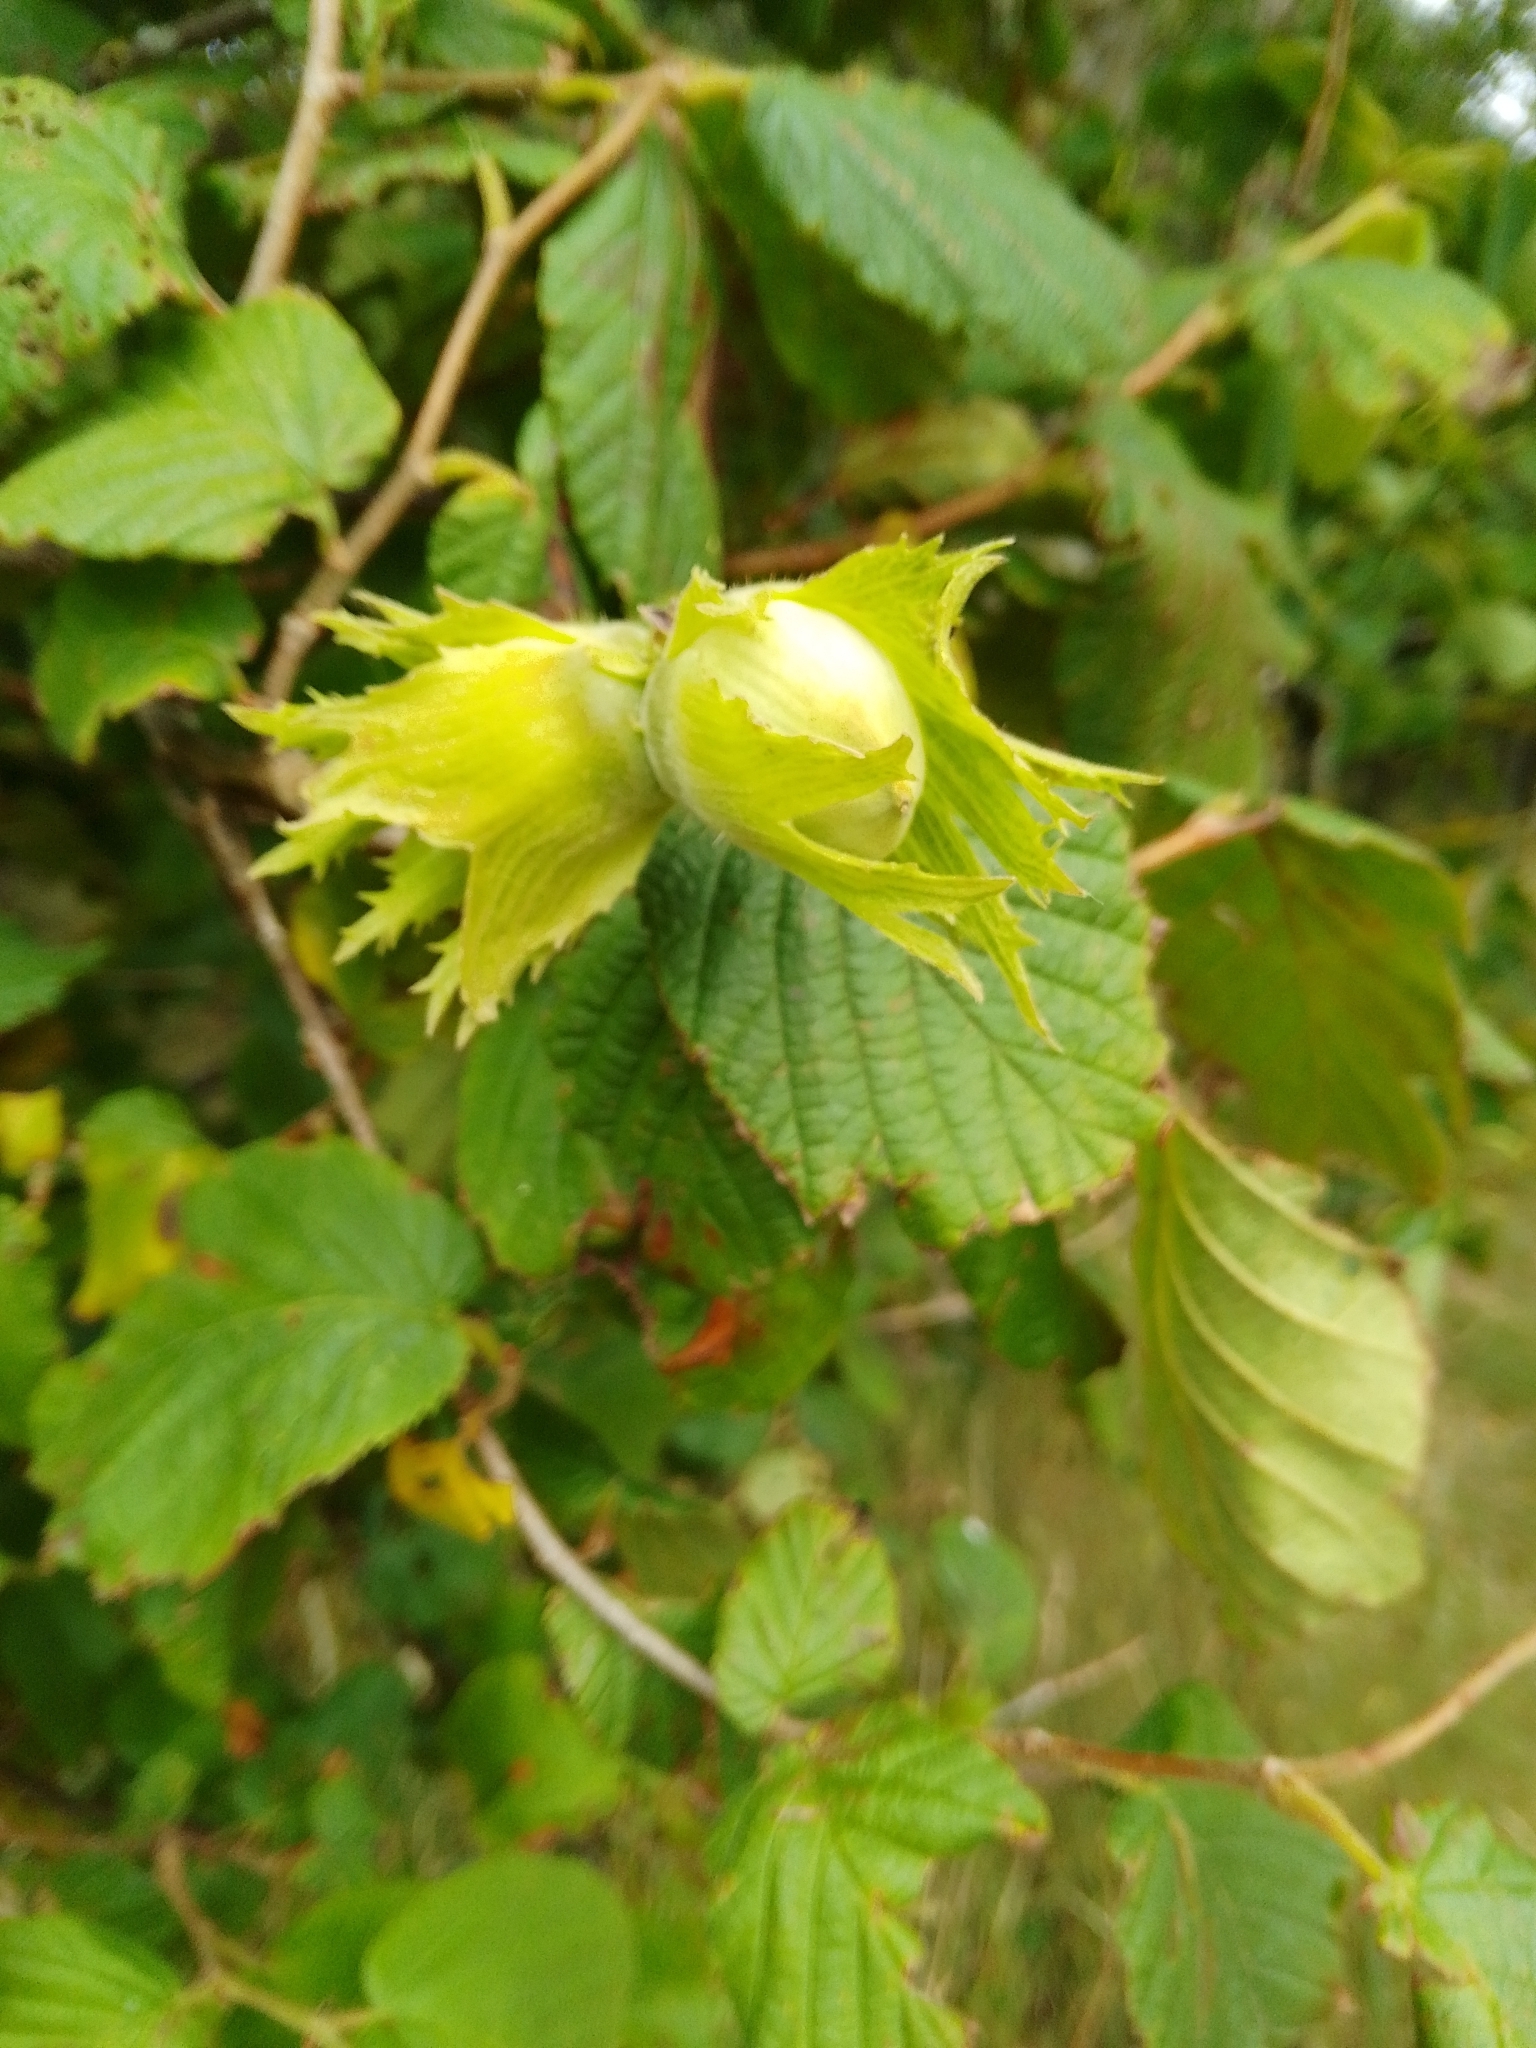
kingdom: Plantae
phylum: Tracheophyta
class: Magnoliopsida
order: Fagales
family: Betulaceae
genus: Corylus
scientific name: Corylus avellana
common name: European hazel
